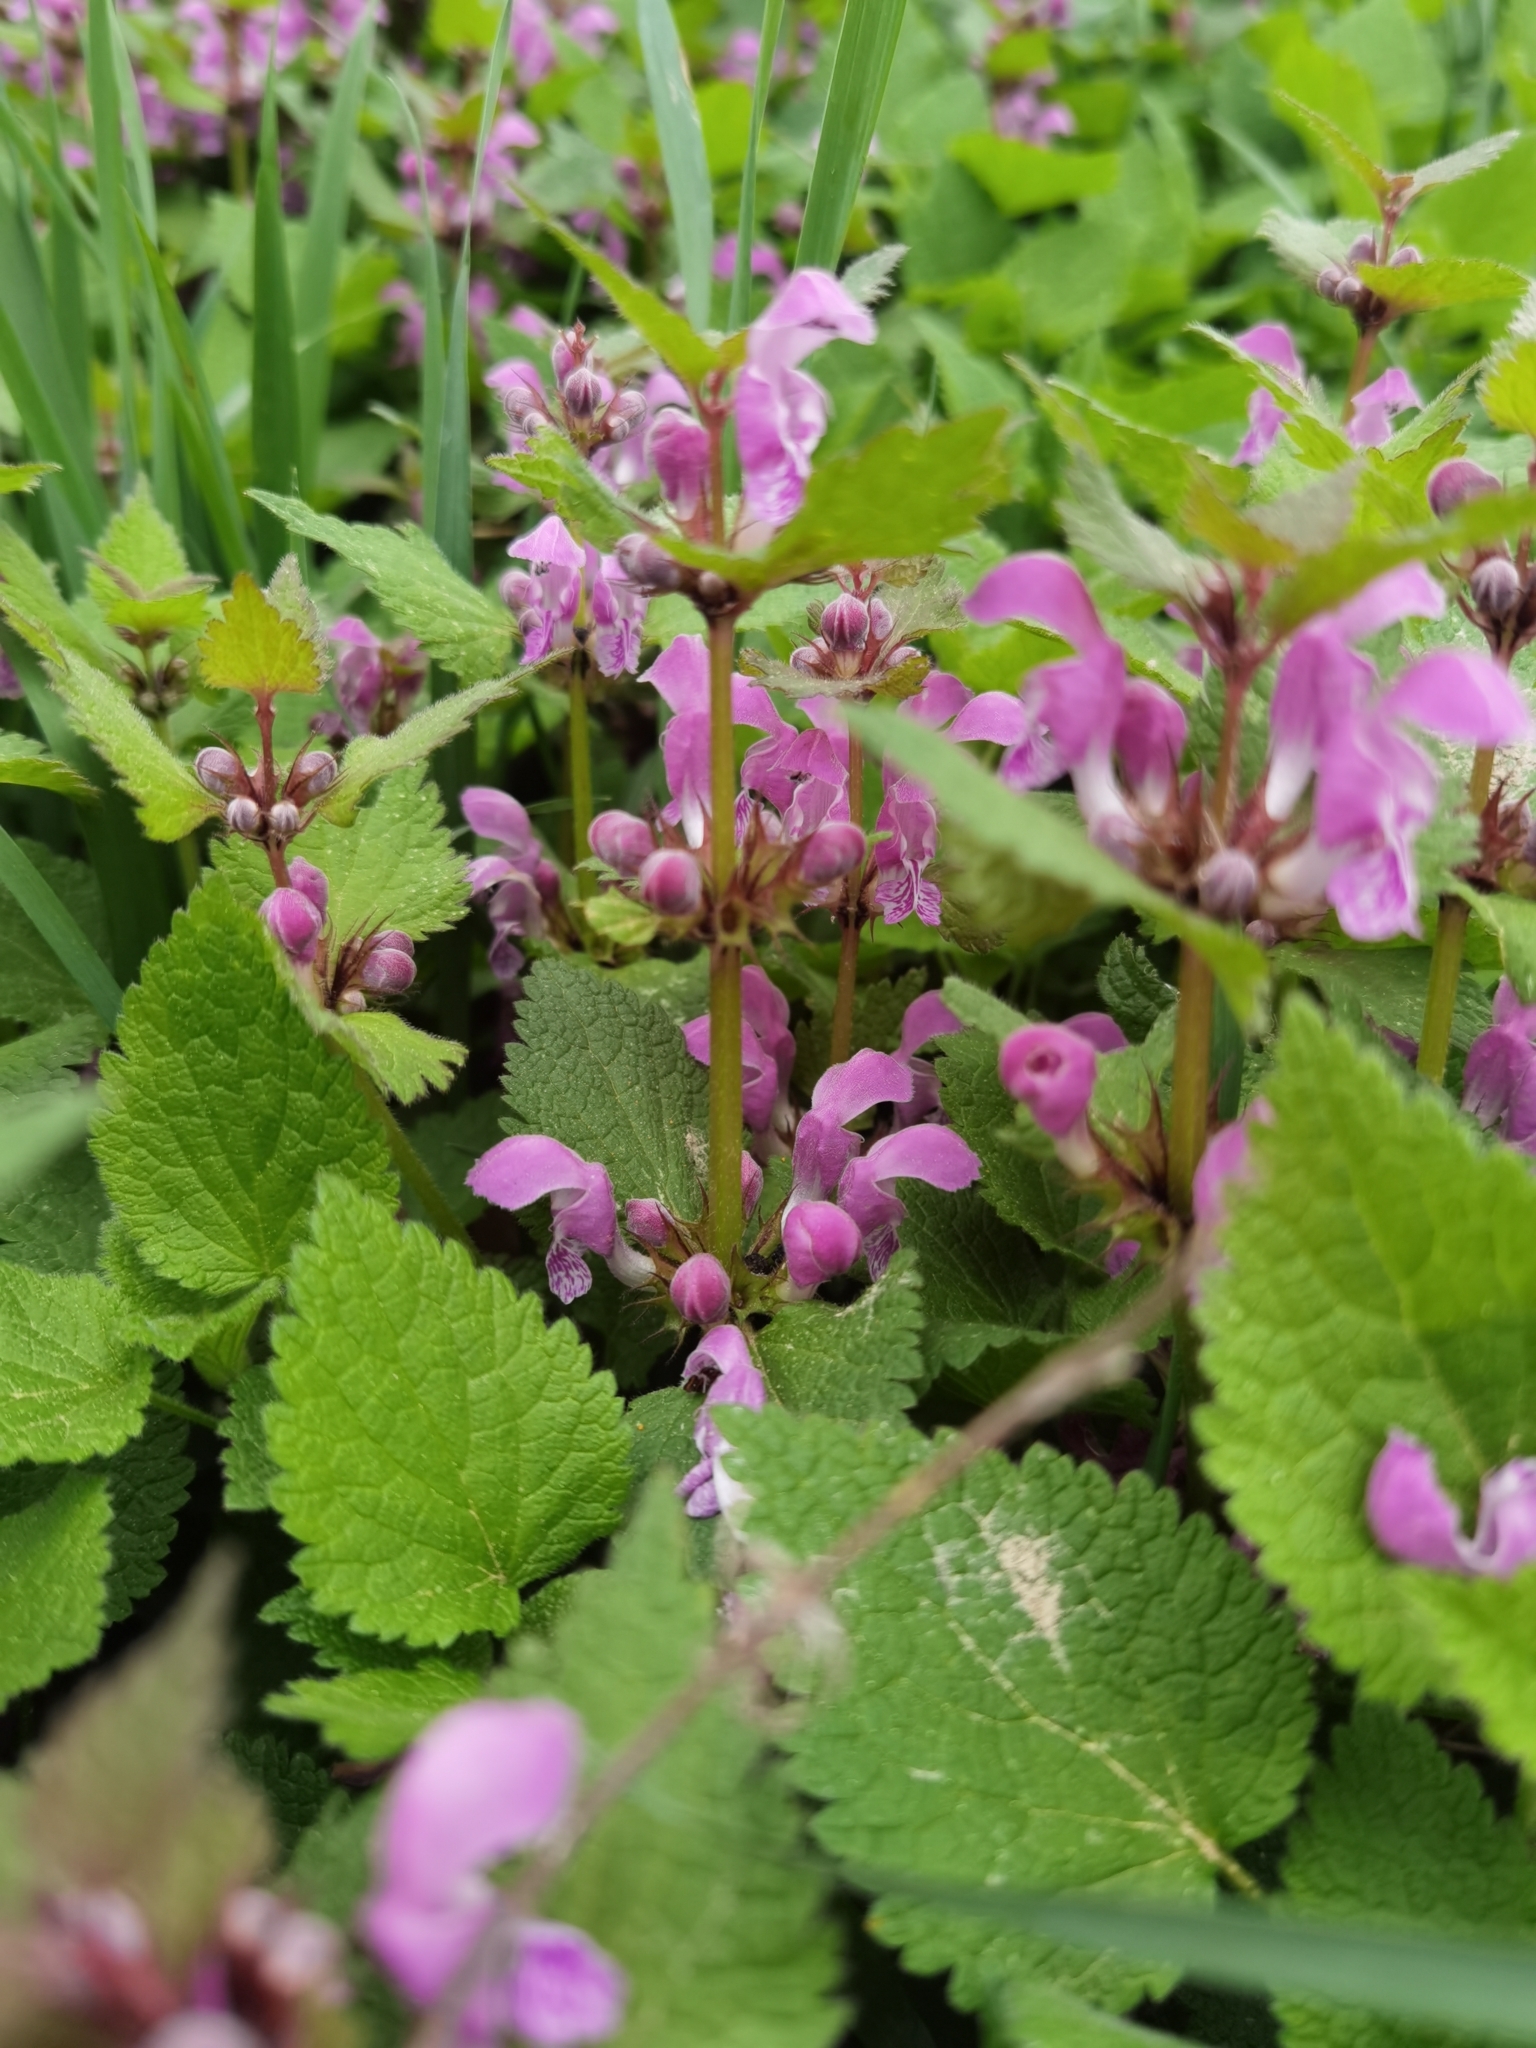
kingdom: Plantae
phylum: Tracheophyta
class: Magnoliopsida
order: Lamiales
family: Lamiaceae
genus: Lamium
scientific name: Lamium maculatum
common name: Spotted dead-nettle
